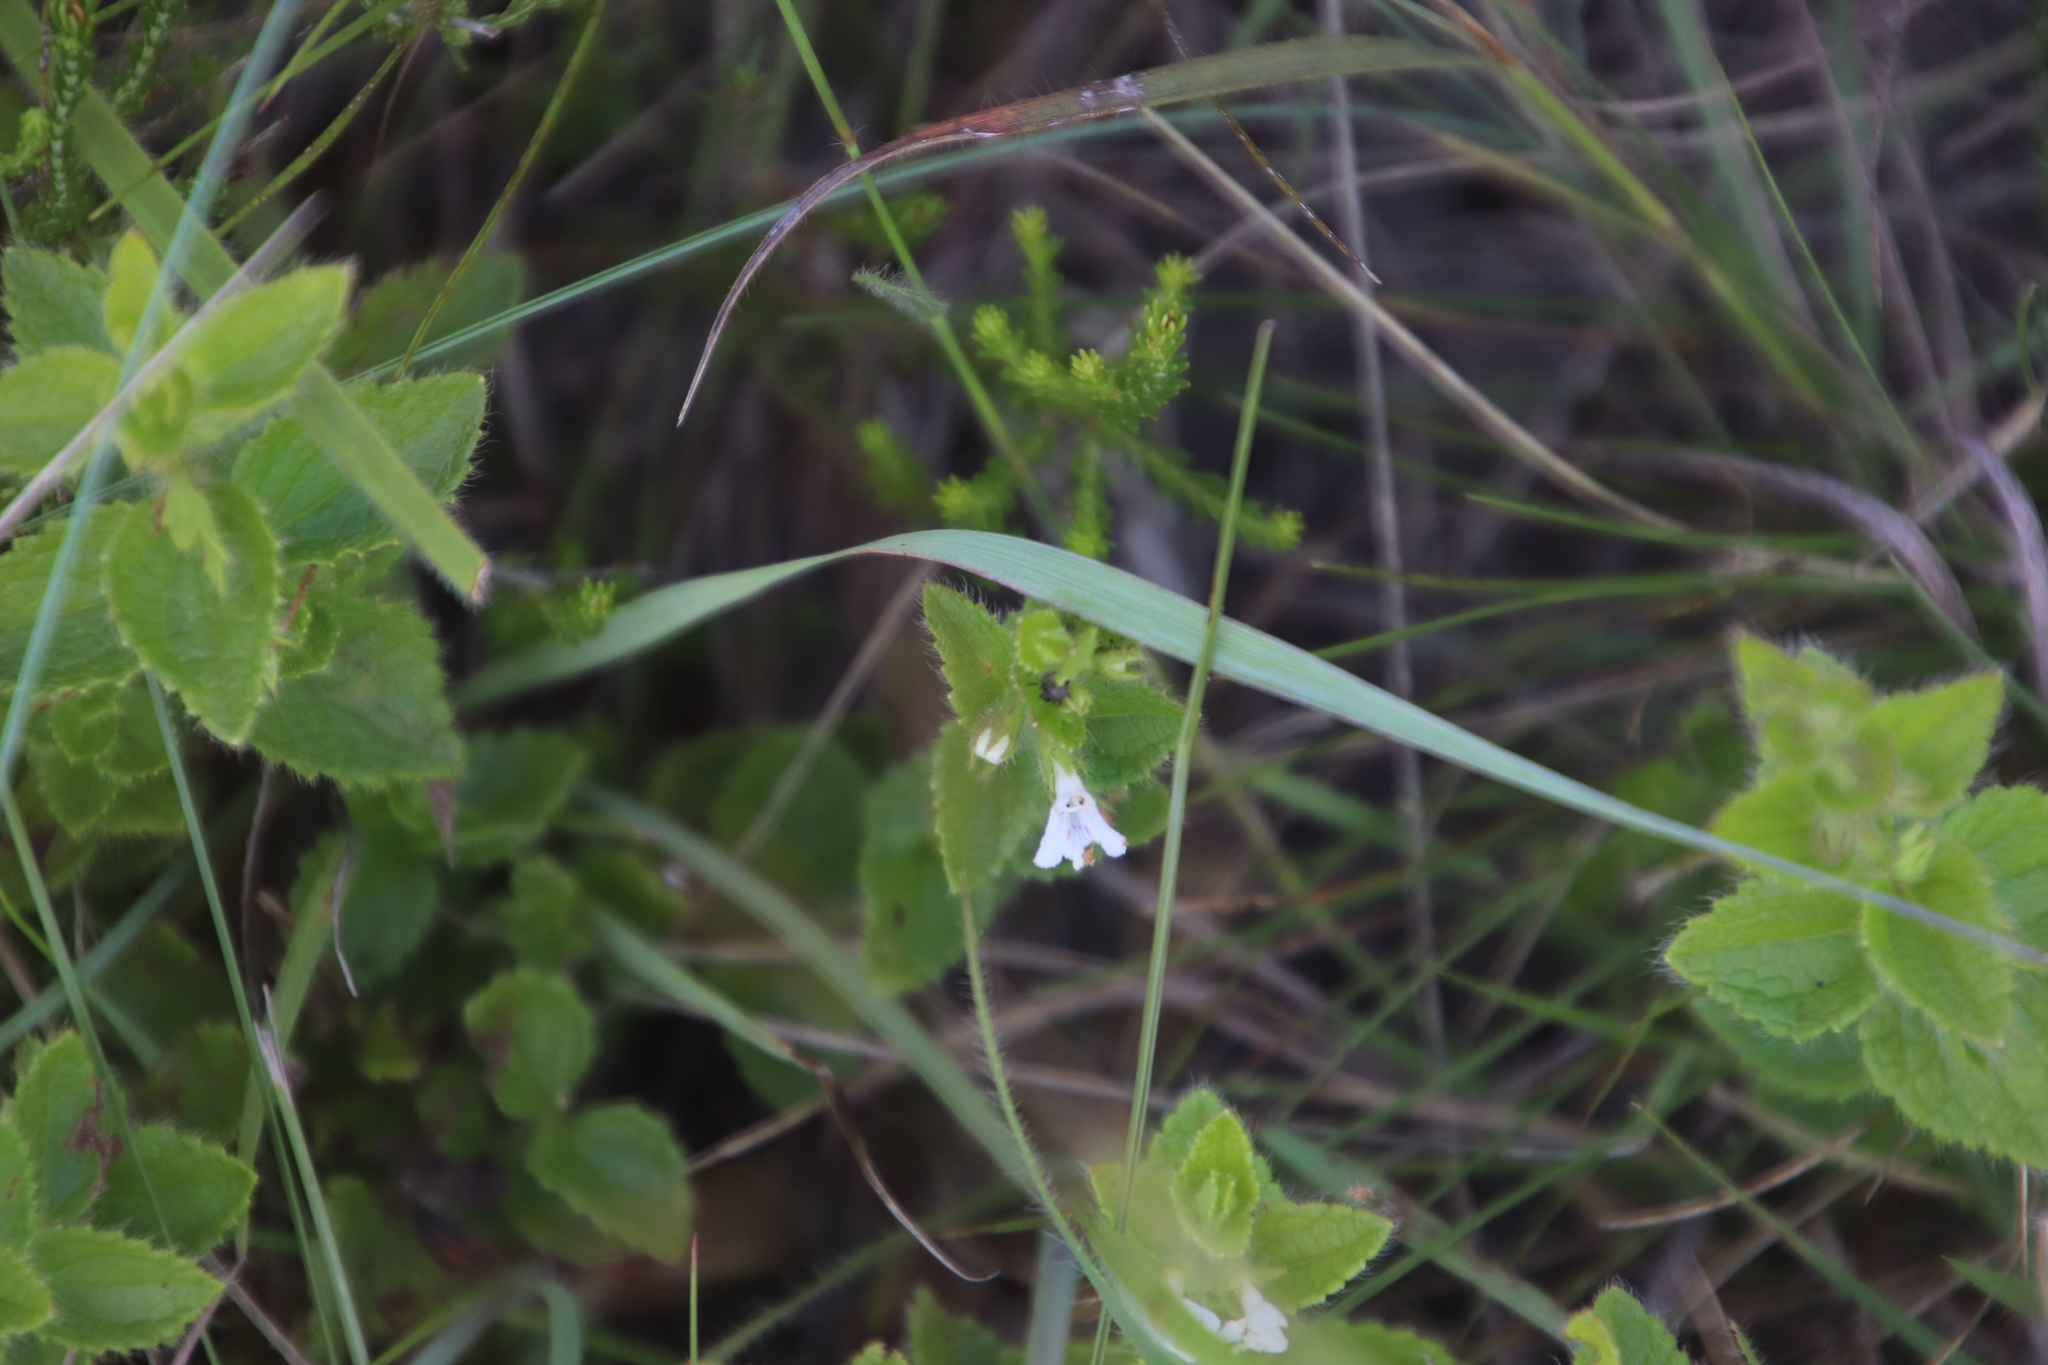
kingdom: Plantae
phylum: Tracheophyta
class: Magnoliopsida
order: Lamiales
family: Lamiaceae
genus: Stachys
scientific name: Stachys aethiopica
